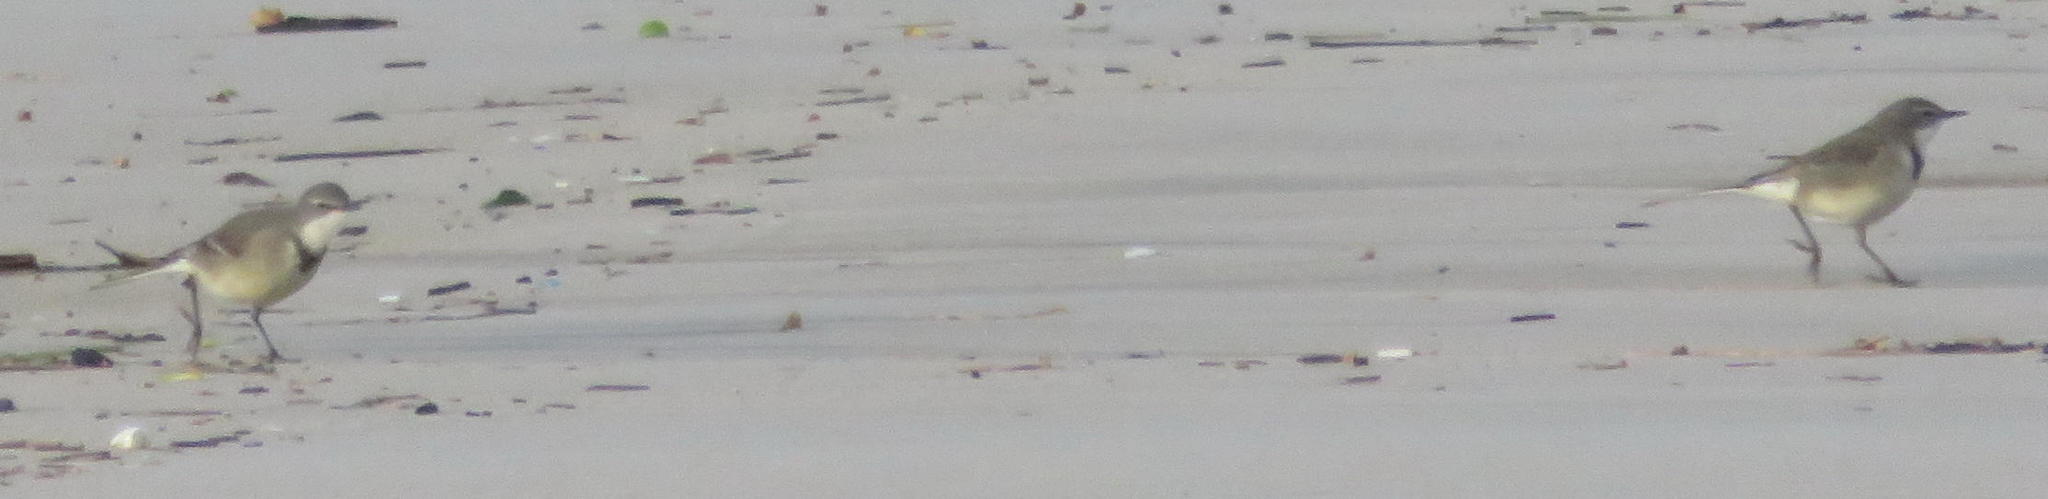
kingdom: Animalia
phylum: Chordata
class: Aves
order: Passeriformes
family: Motacillidae
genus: Motacilla
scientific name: Motacilla capensis
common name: Cape wagtail
